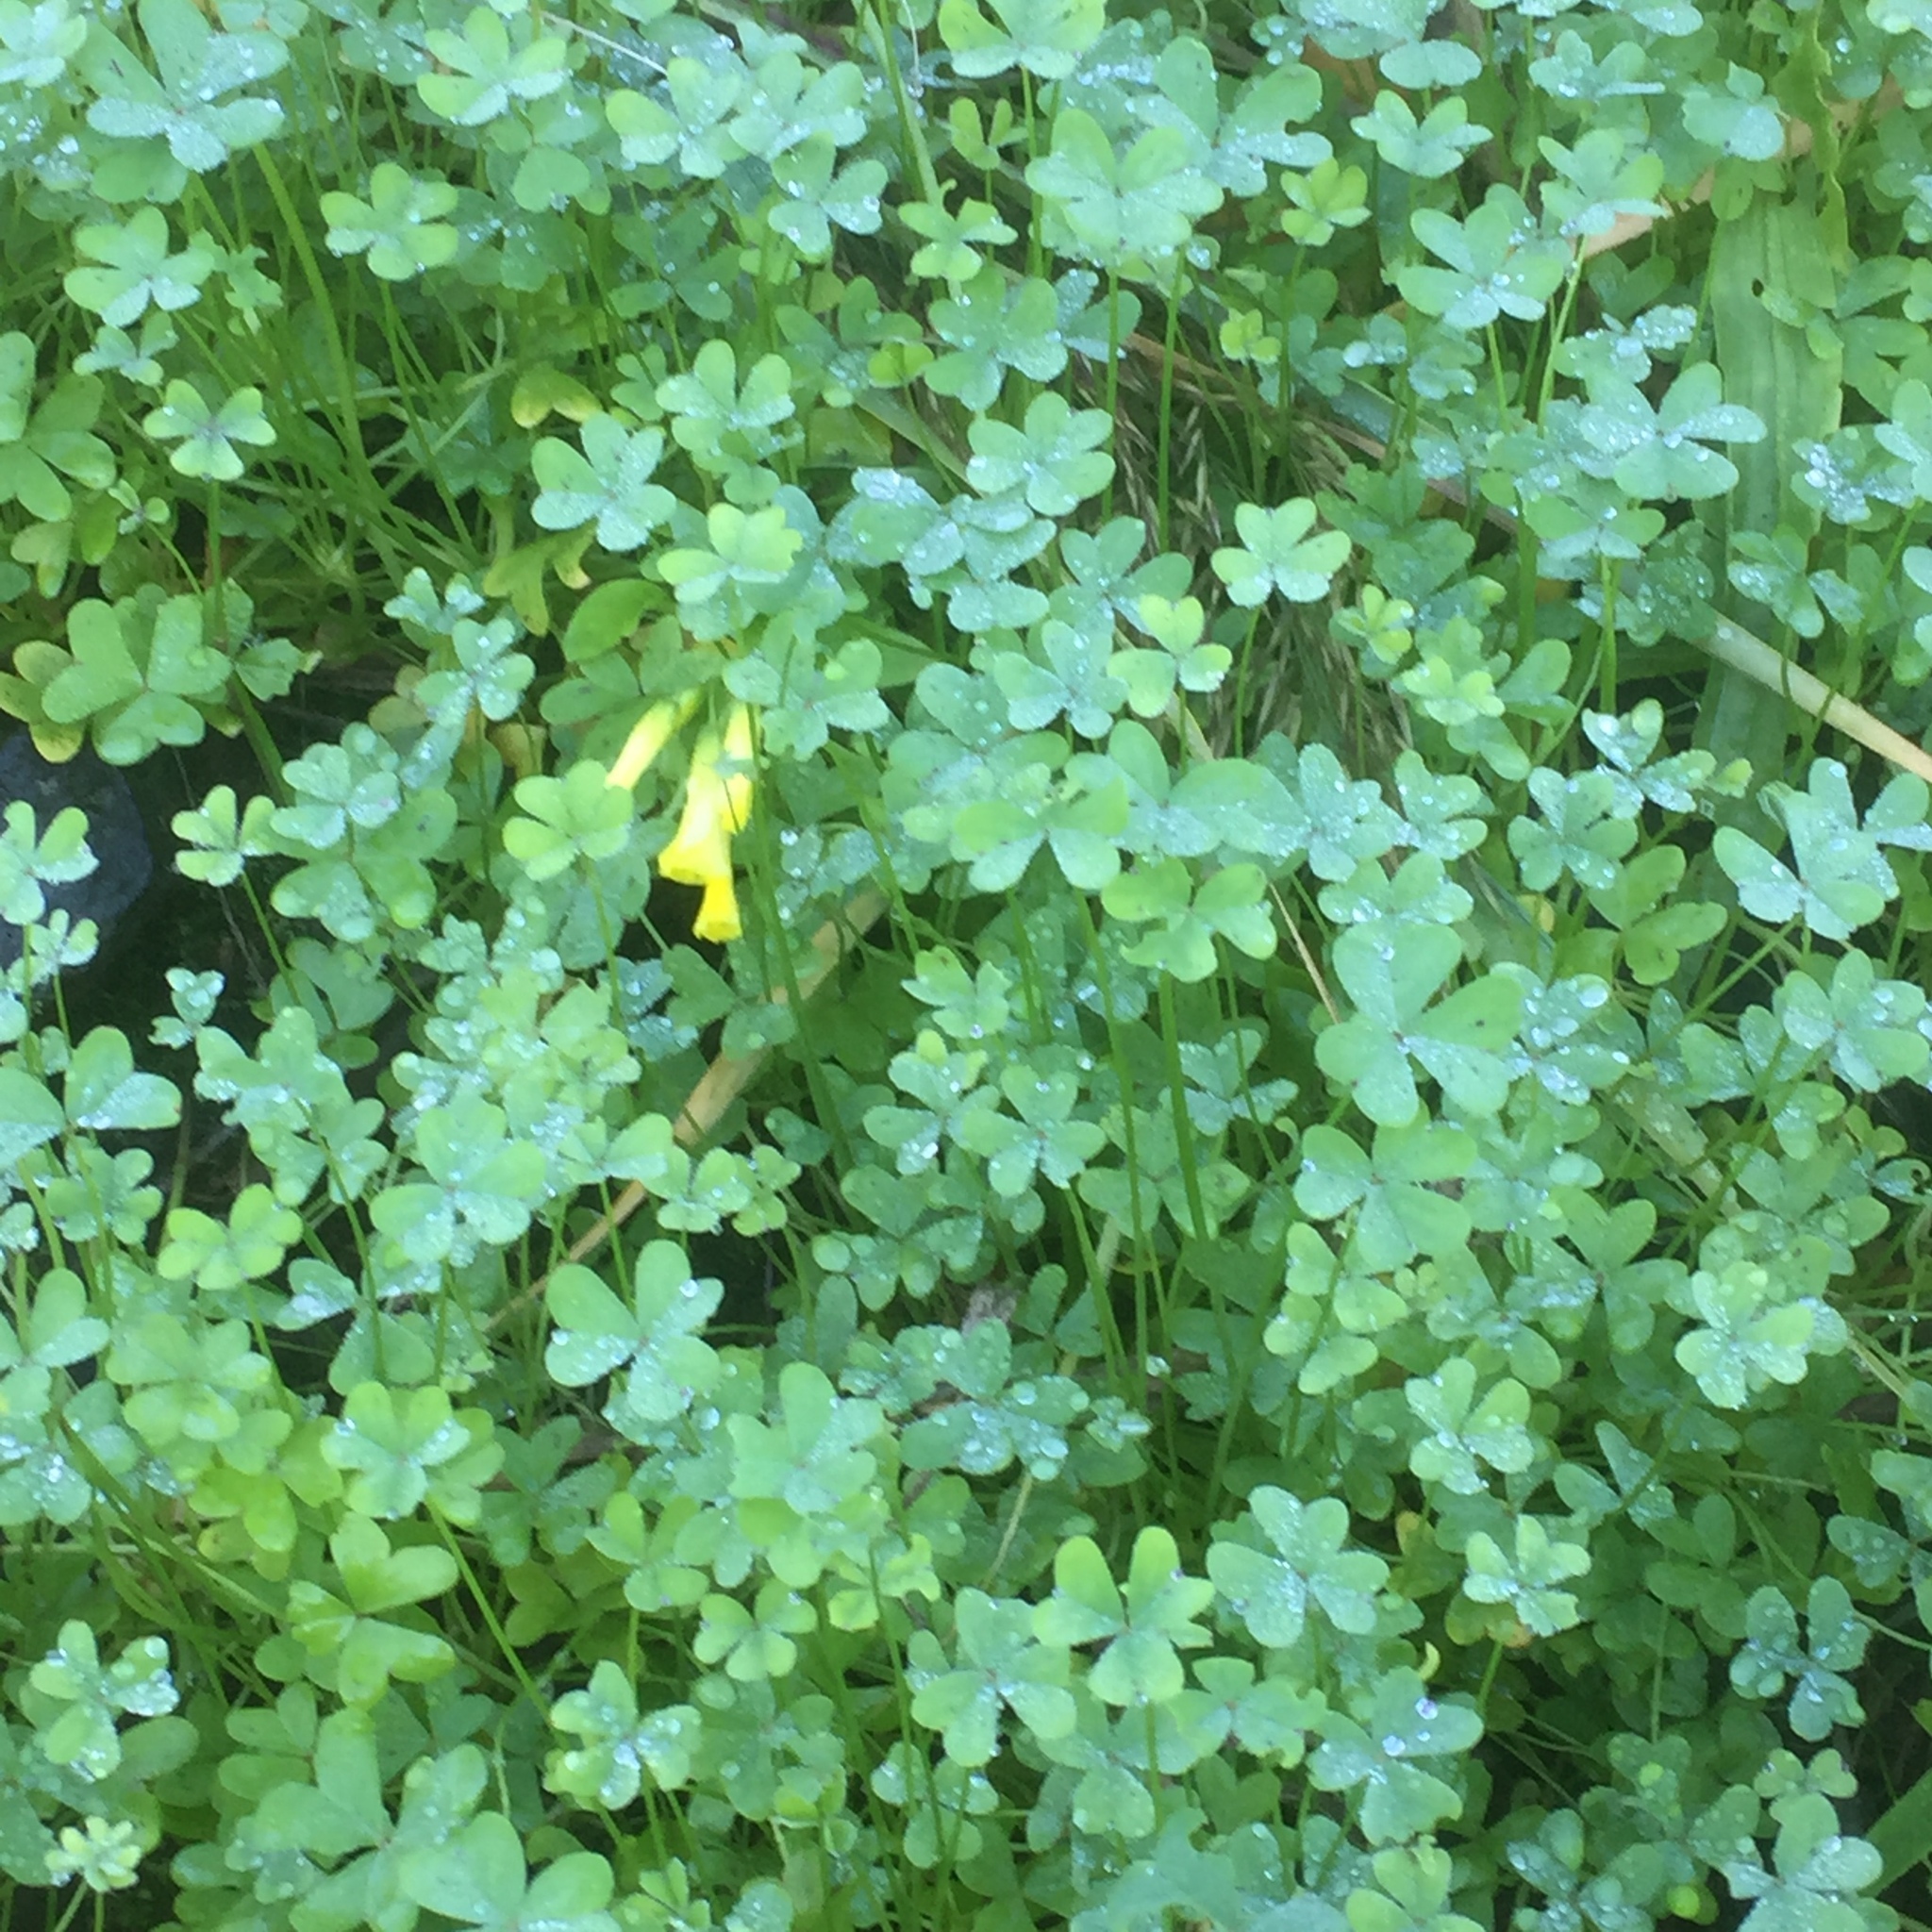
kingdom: Plantae
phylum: Tracheophyta
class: Magnoliopsida
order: Oxalidales
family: Oxalidaceae
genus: Oxalis
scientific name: Oxalis pes-caprae
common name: Bermuda-buttercup
